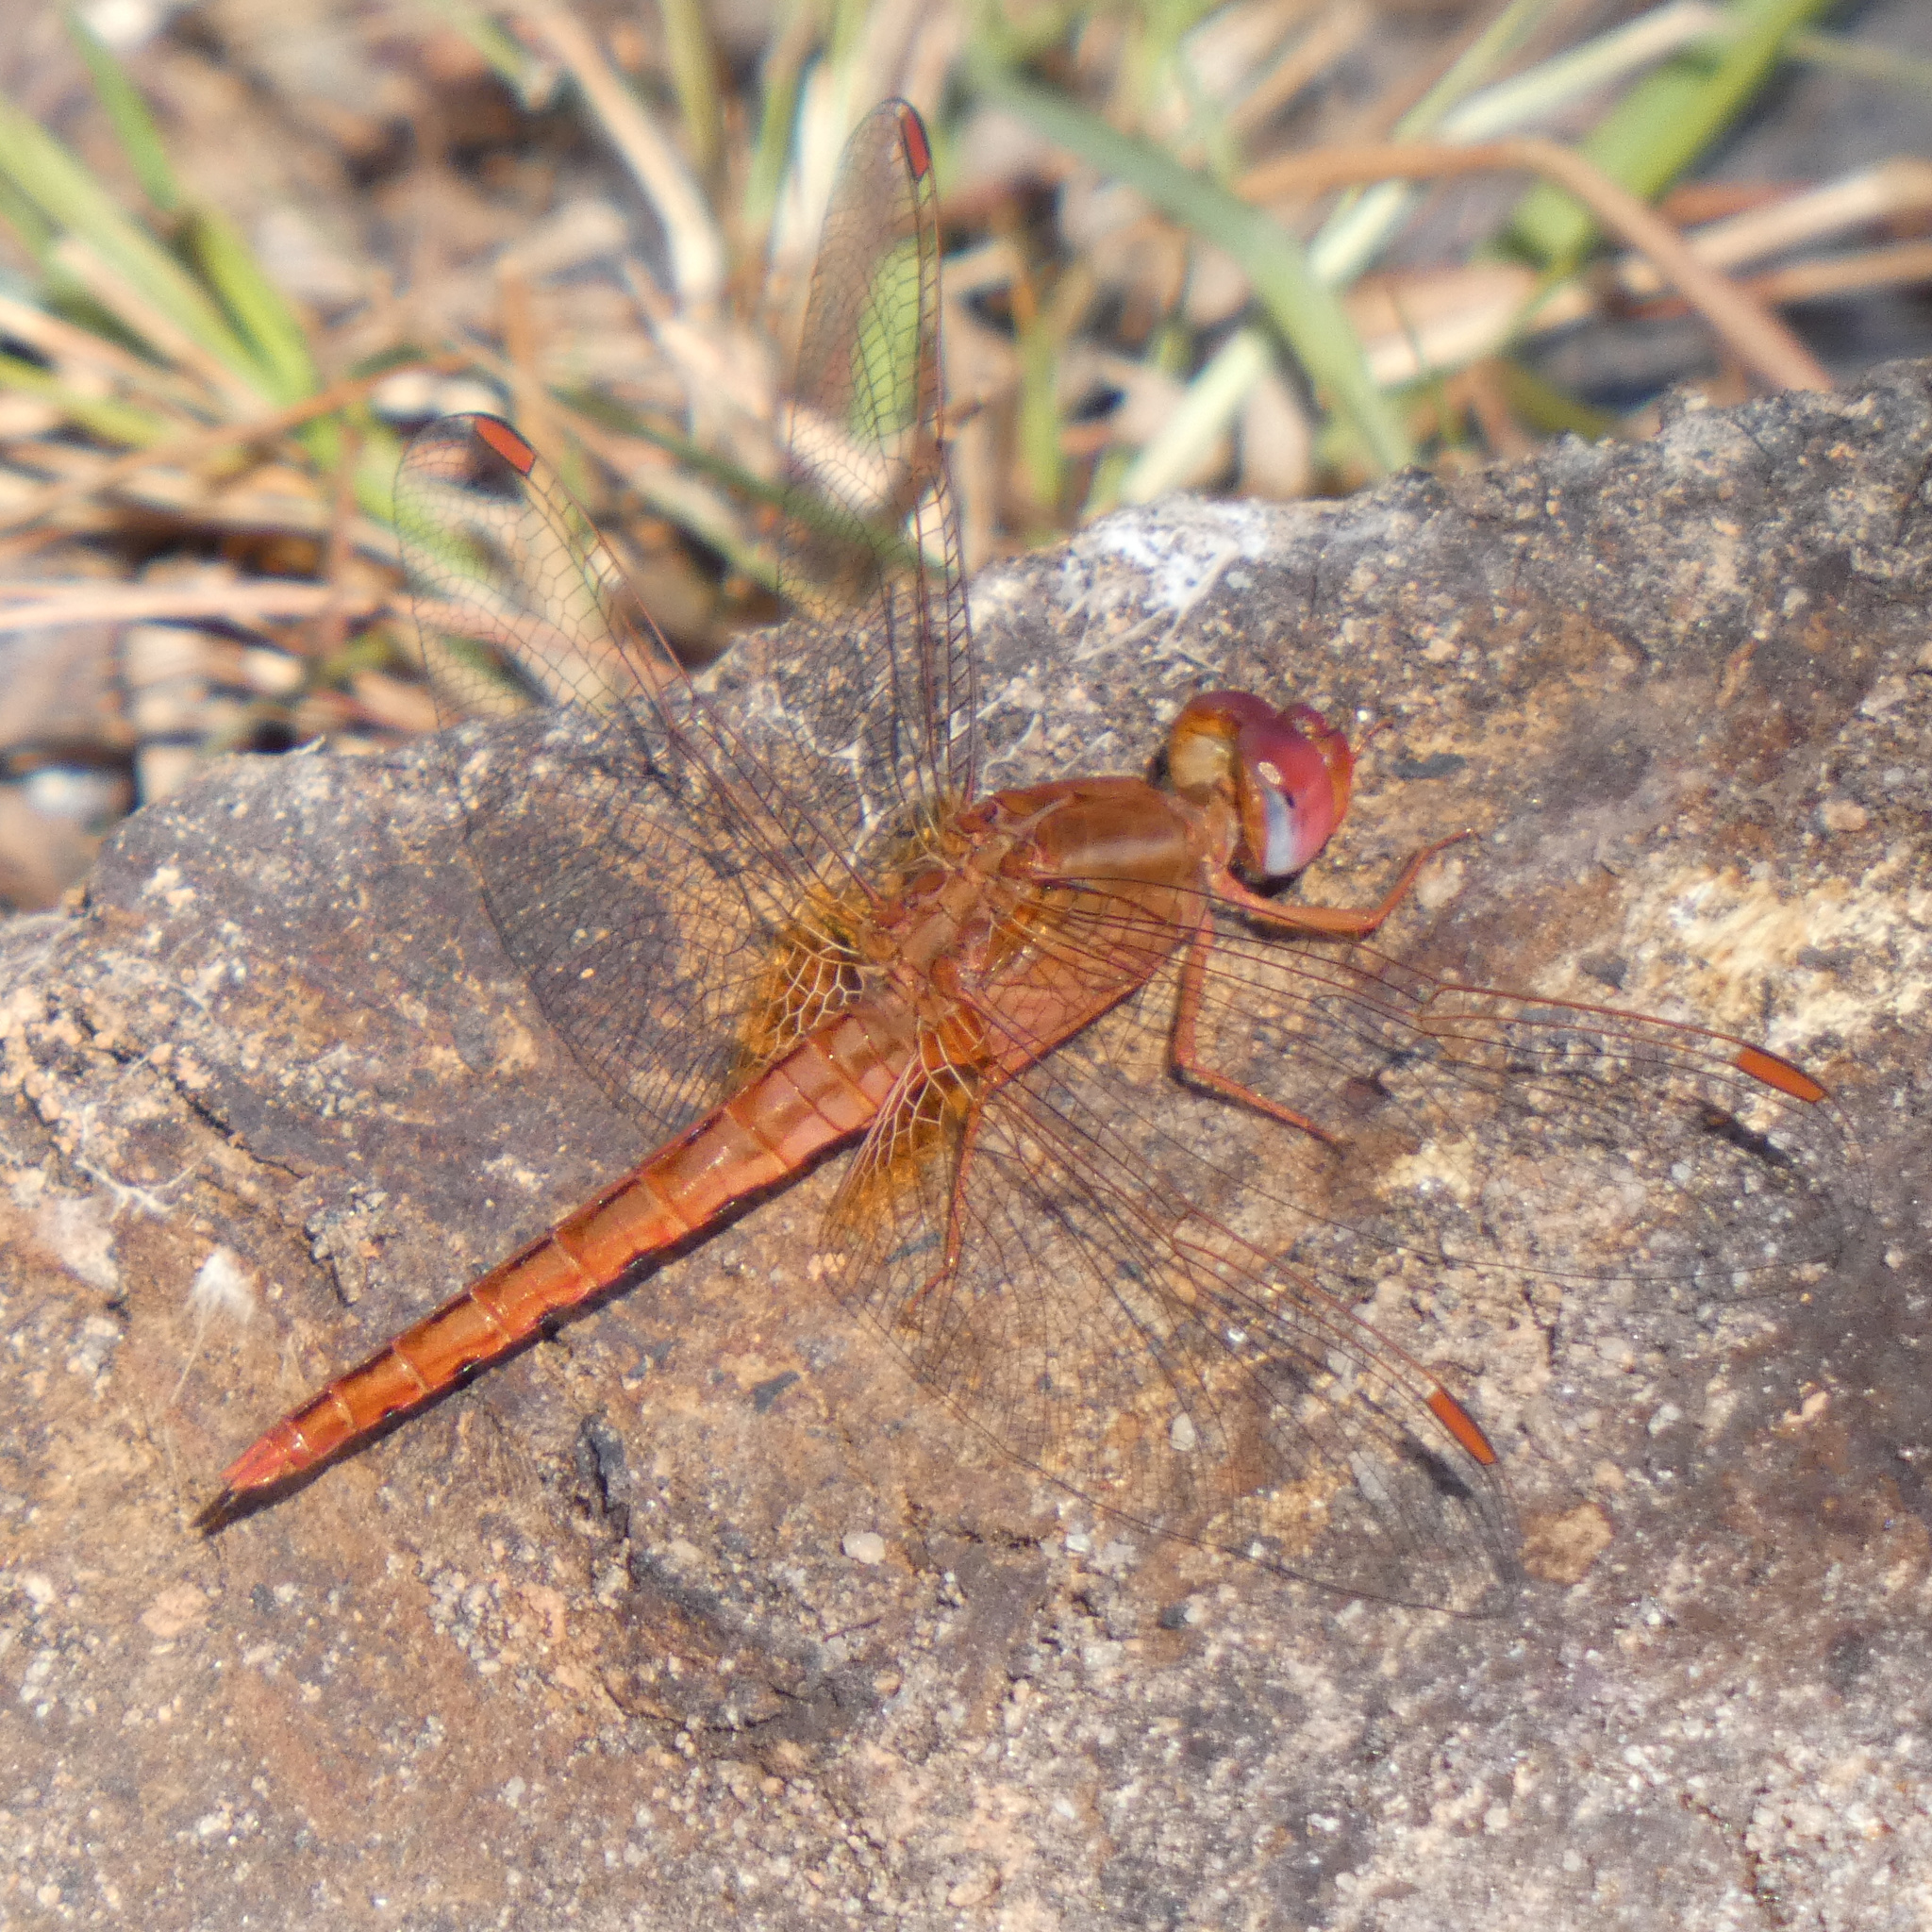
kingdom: Animalia
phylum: Arthropoda
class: Insecta
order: Odonata
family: Libellulidae
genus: Crocothemis
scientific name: Crocothemis sanguinolenta
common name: Little scarlet
